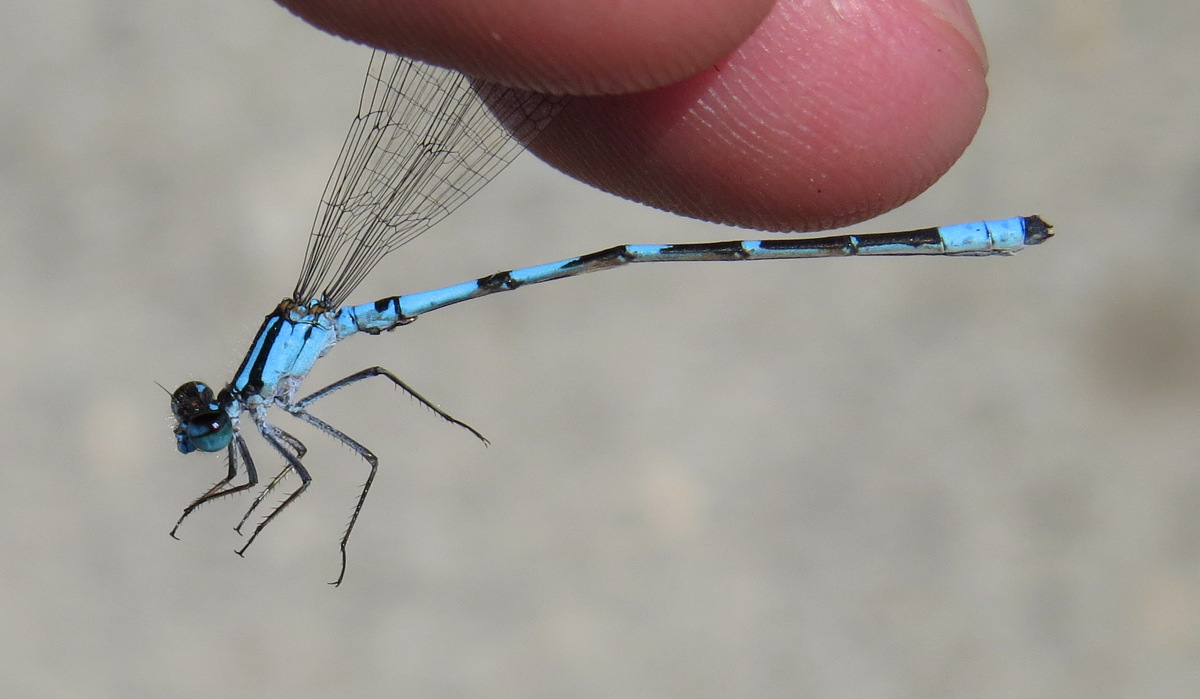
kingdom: Animalia
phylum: Arthropoda
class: Insecta
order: Odonata
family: Coenagrionidae
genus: Enallagma
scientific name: Enallagma hageni
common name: Hagen's bluet
